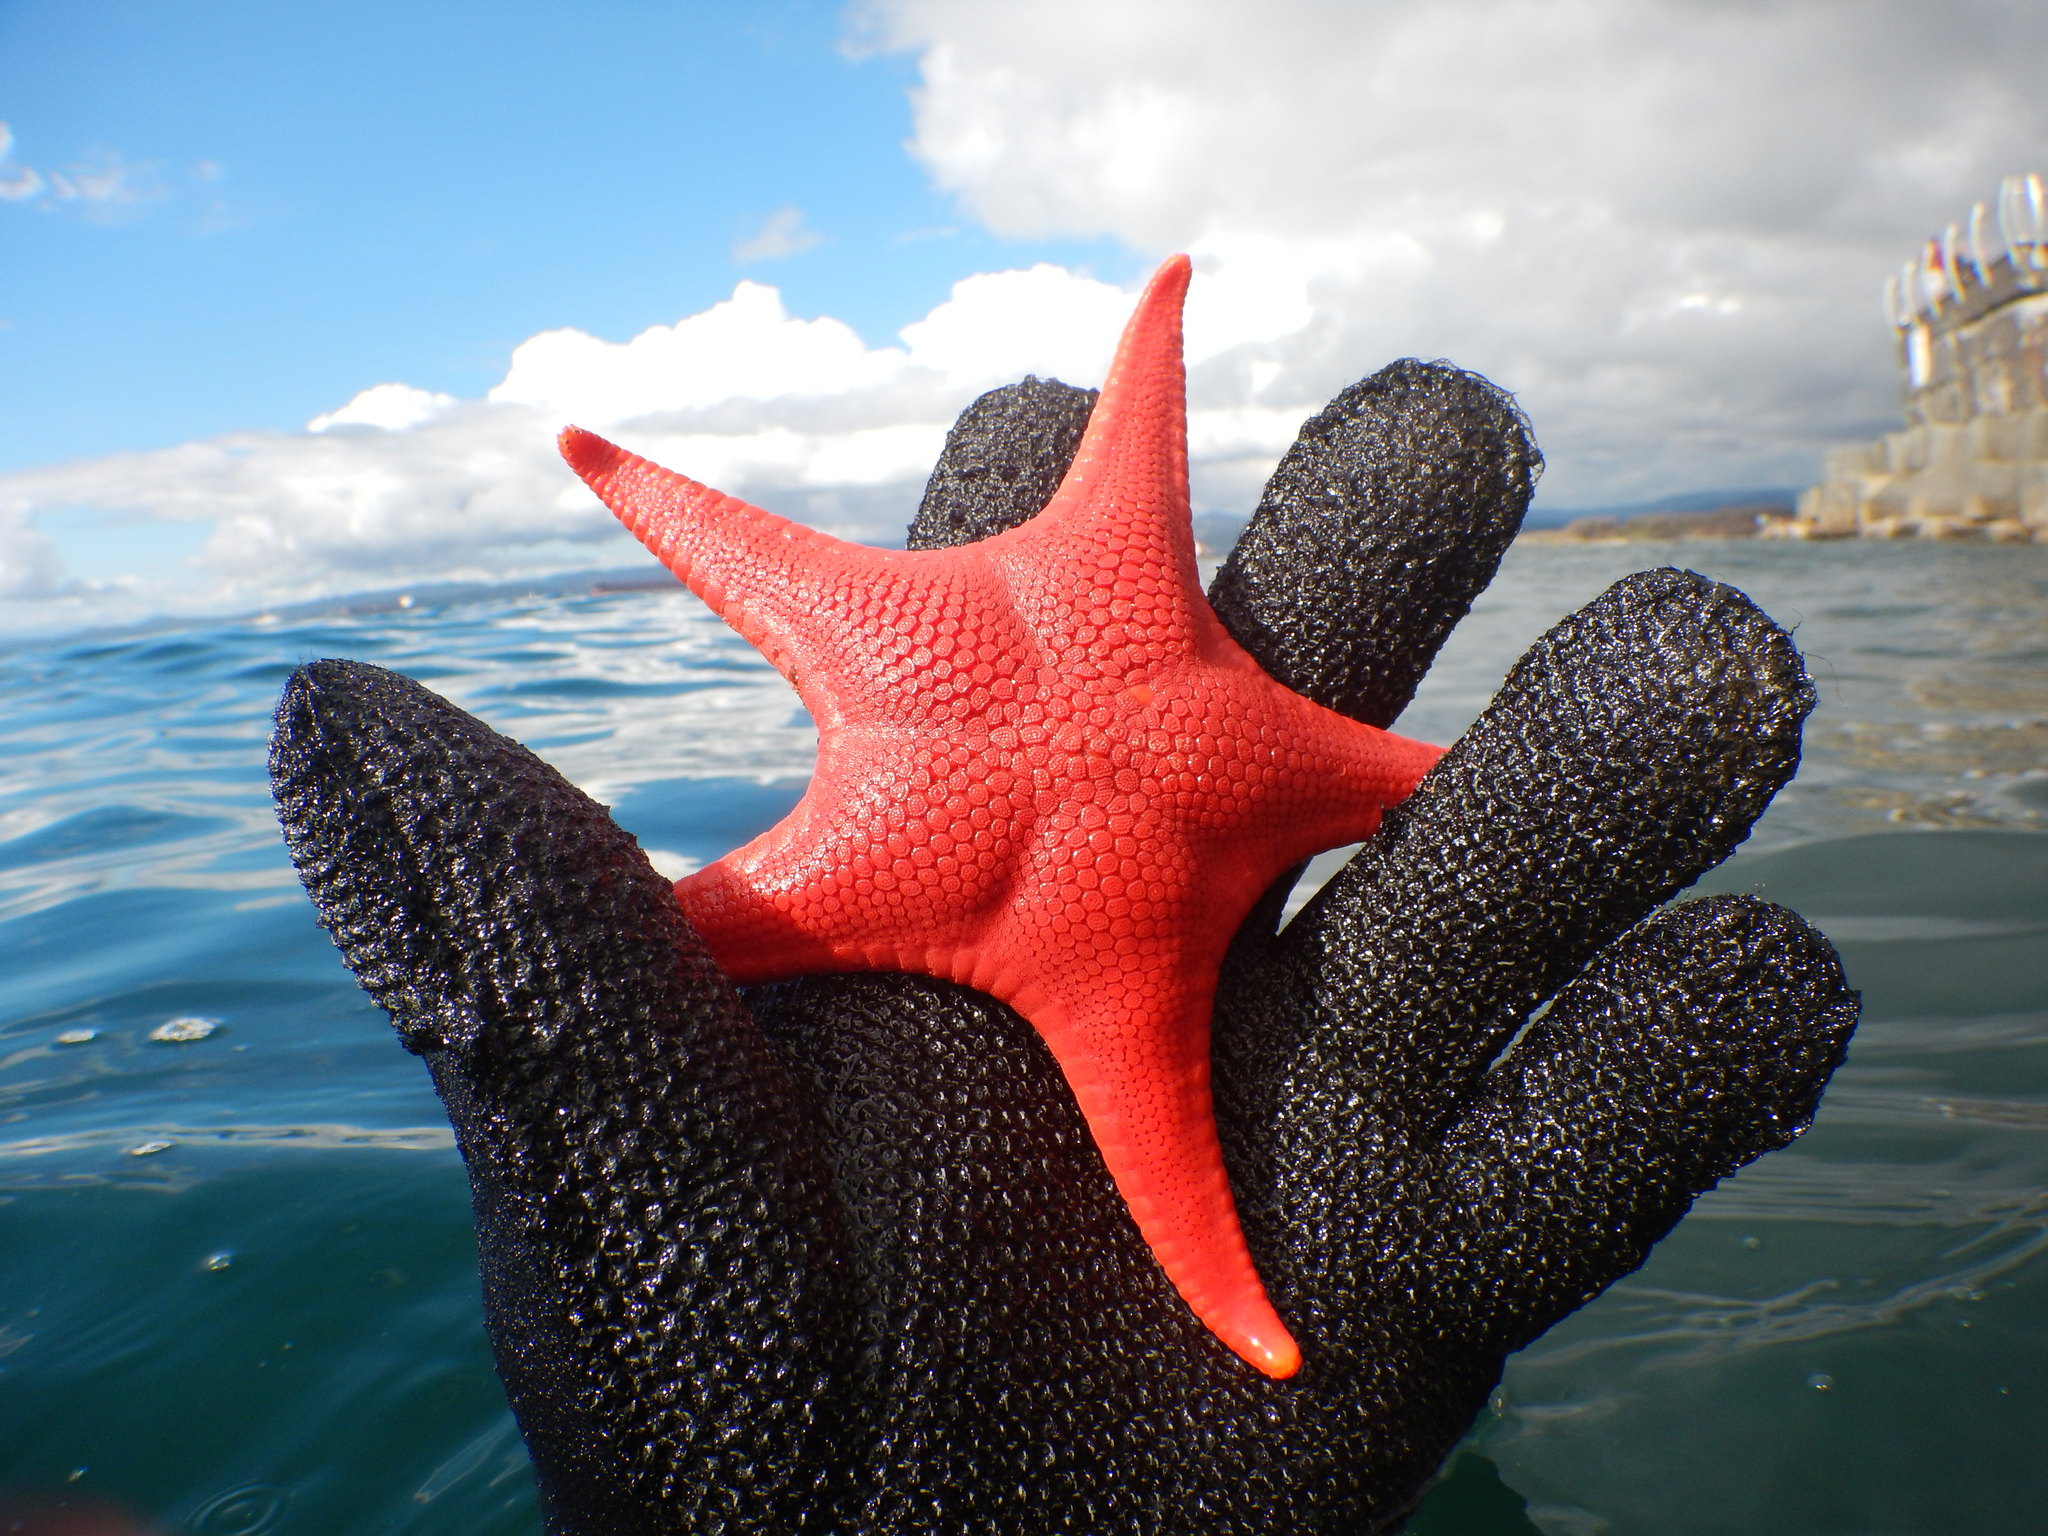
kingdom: Animalia
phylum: Echinodermata
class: Asteroidea
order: Valvatida
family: Goniasteridae
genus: Mediaster
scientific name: Mediaster aequalis
